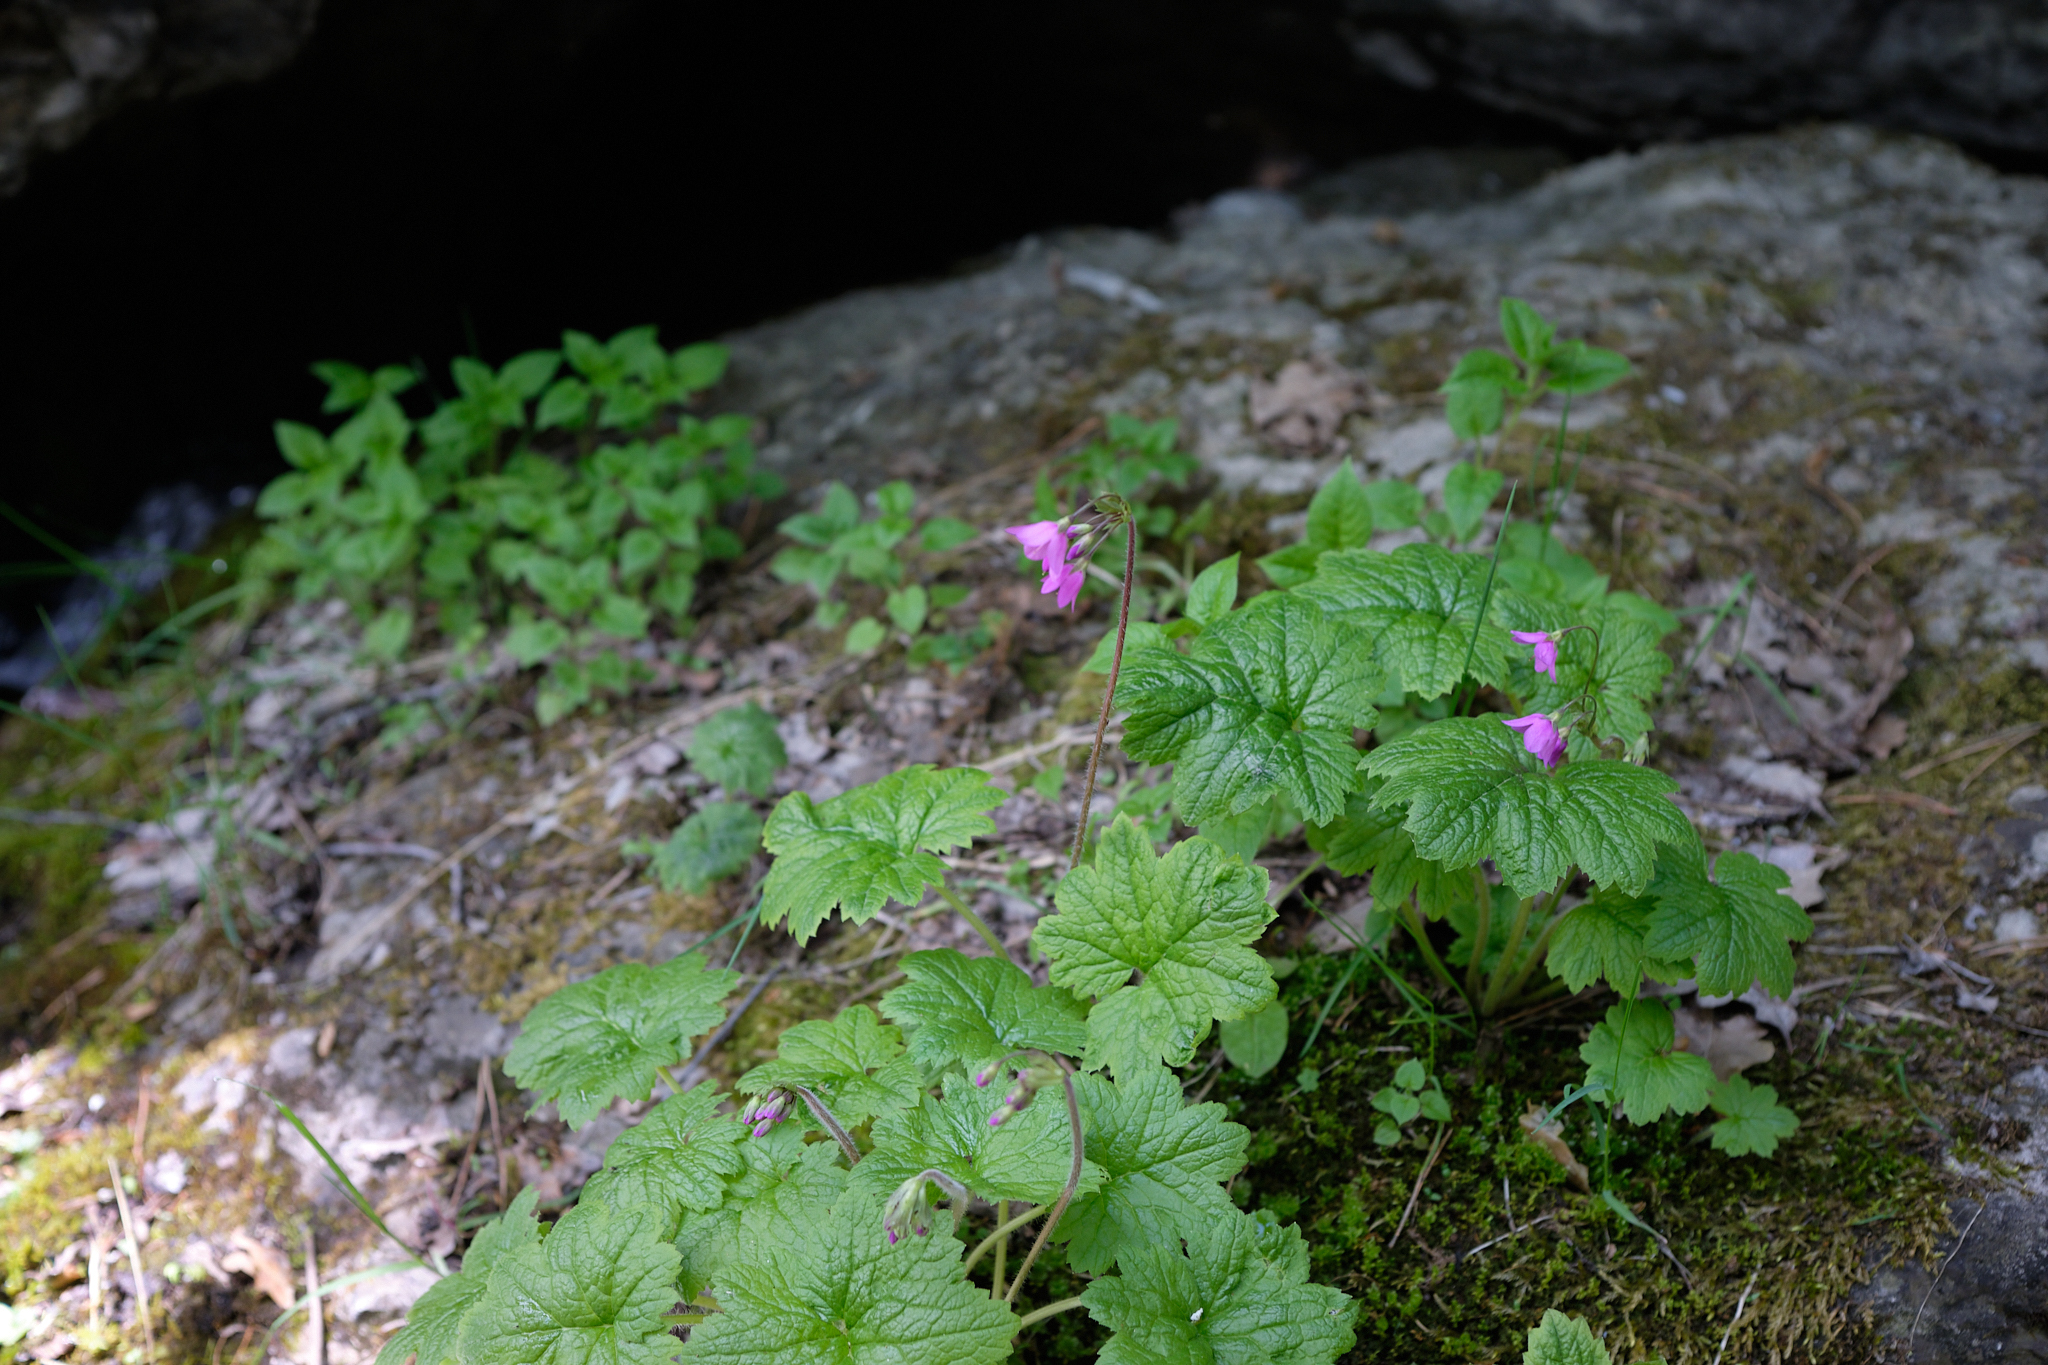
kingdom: Plantae
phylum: Tracheophyta
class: Magnoliopsida
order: Ericales
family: Primulaceae
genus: Primula
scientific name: Primula matthioli
